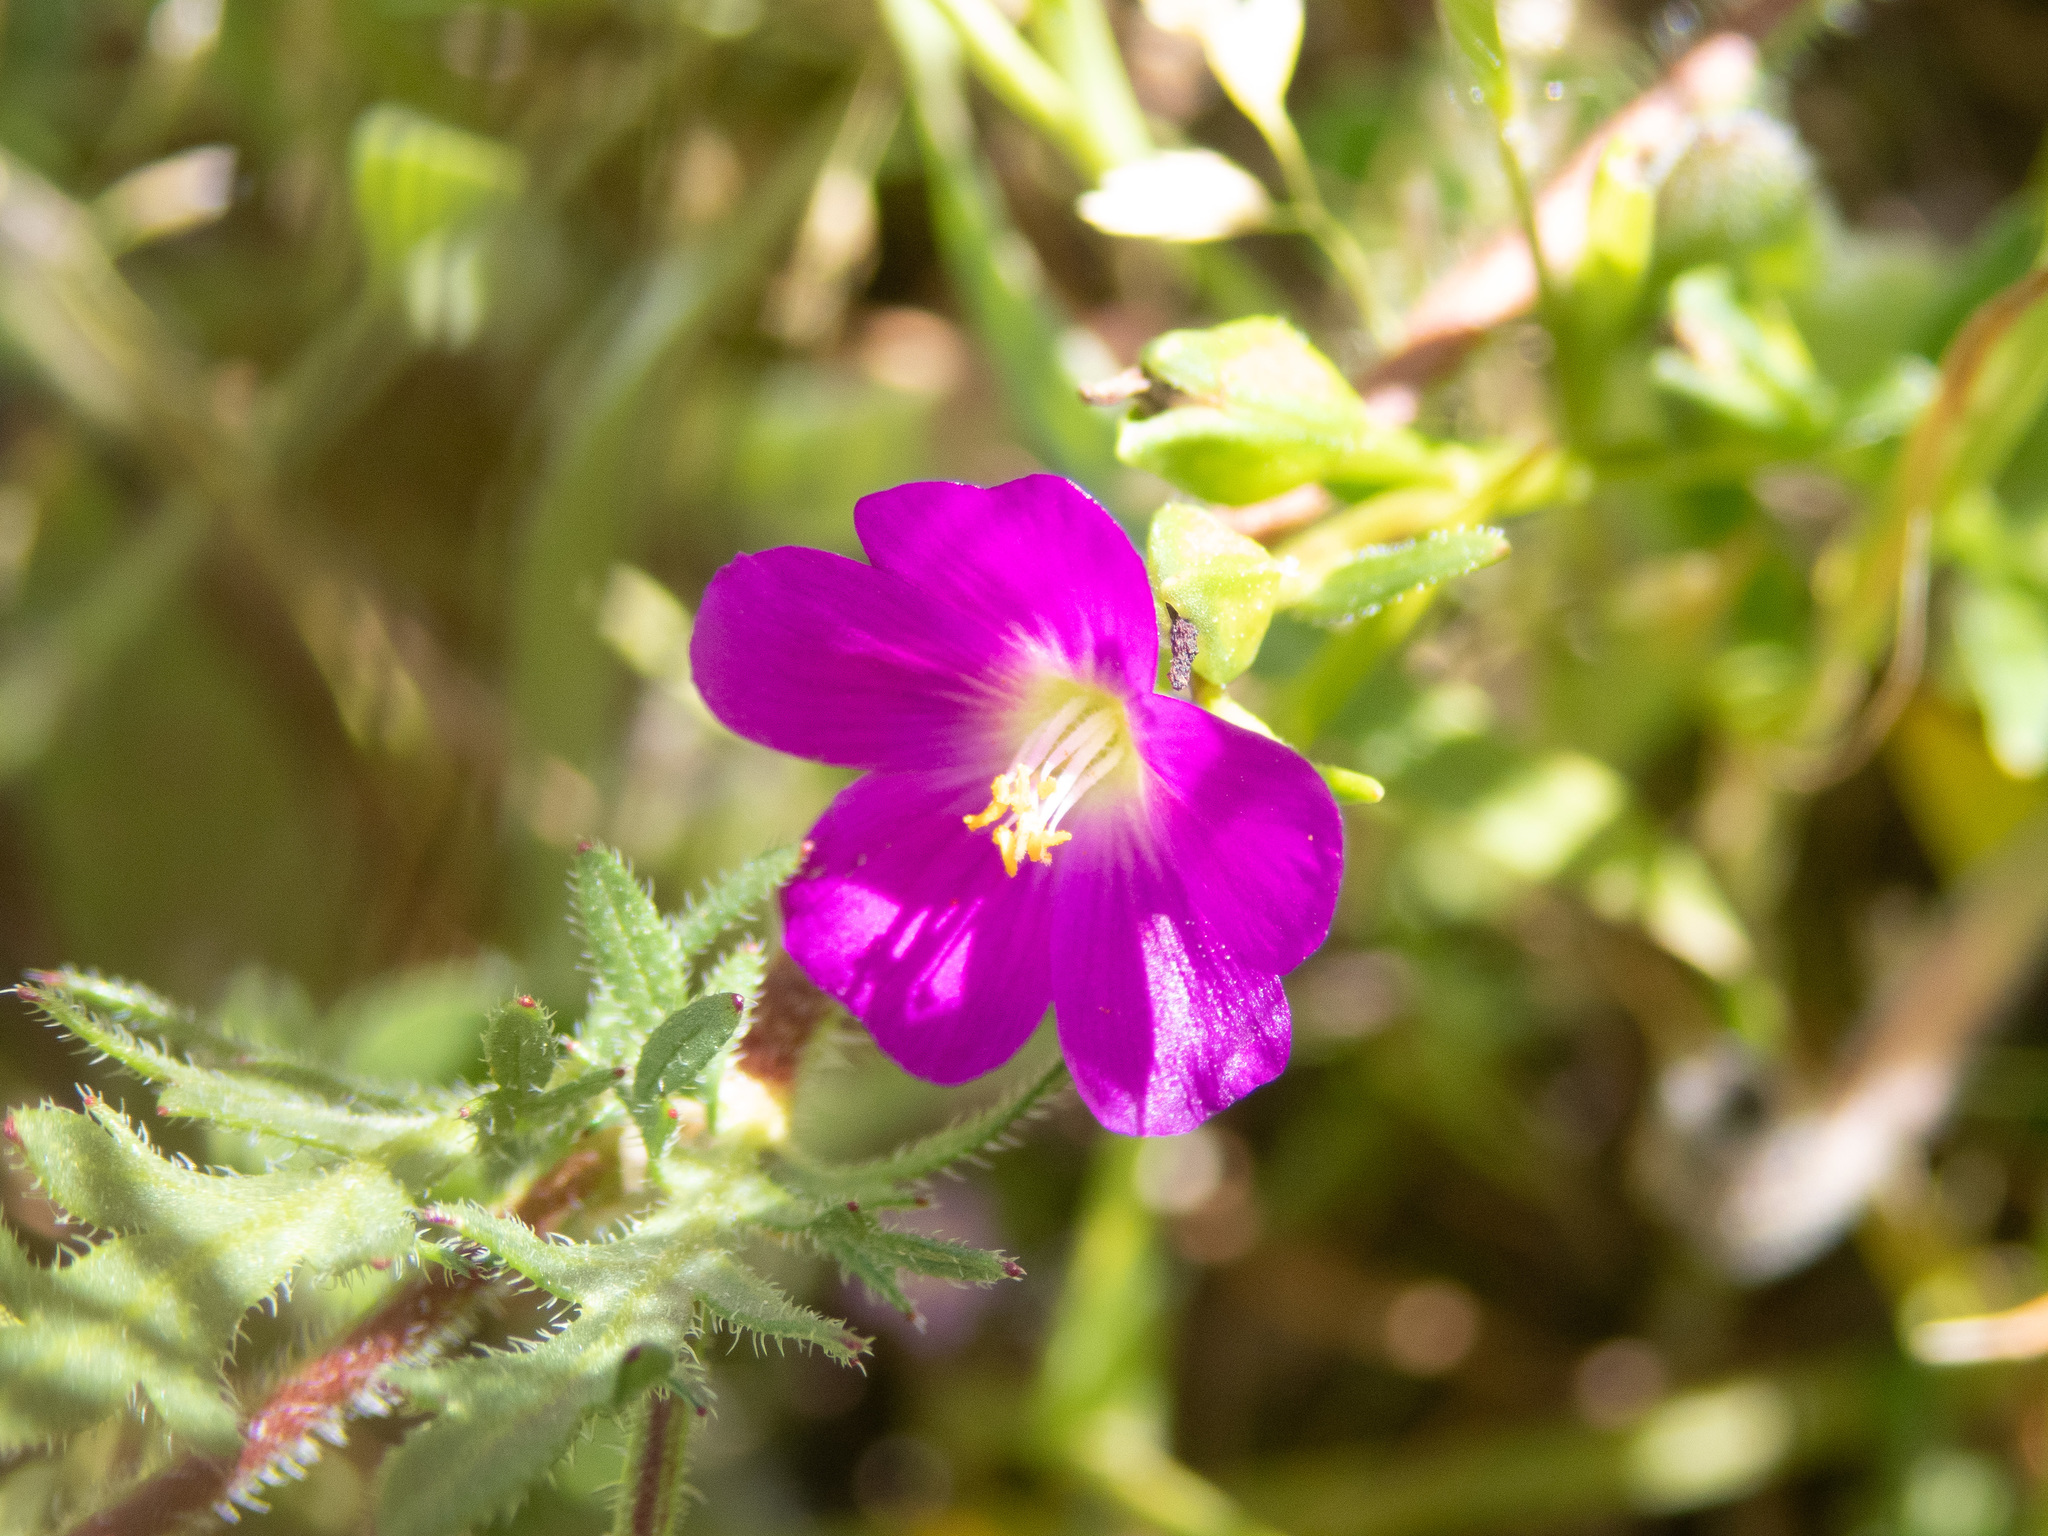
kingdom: Plantae
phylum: Tracheophyta
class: Magnoliopsida
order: Caryophyllales
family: Montiaceae
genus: Calandrinia
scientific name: Calandrinia menziesii
